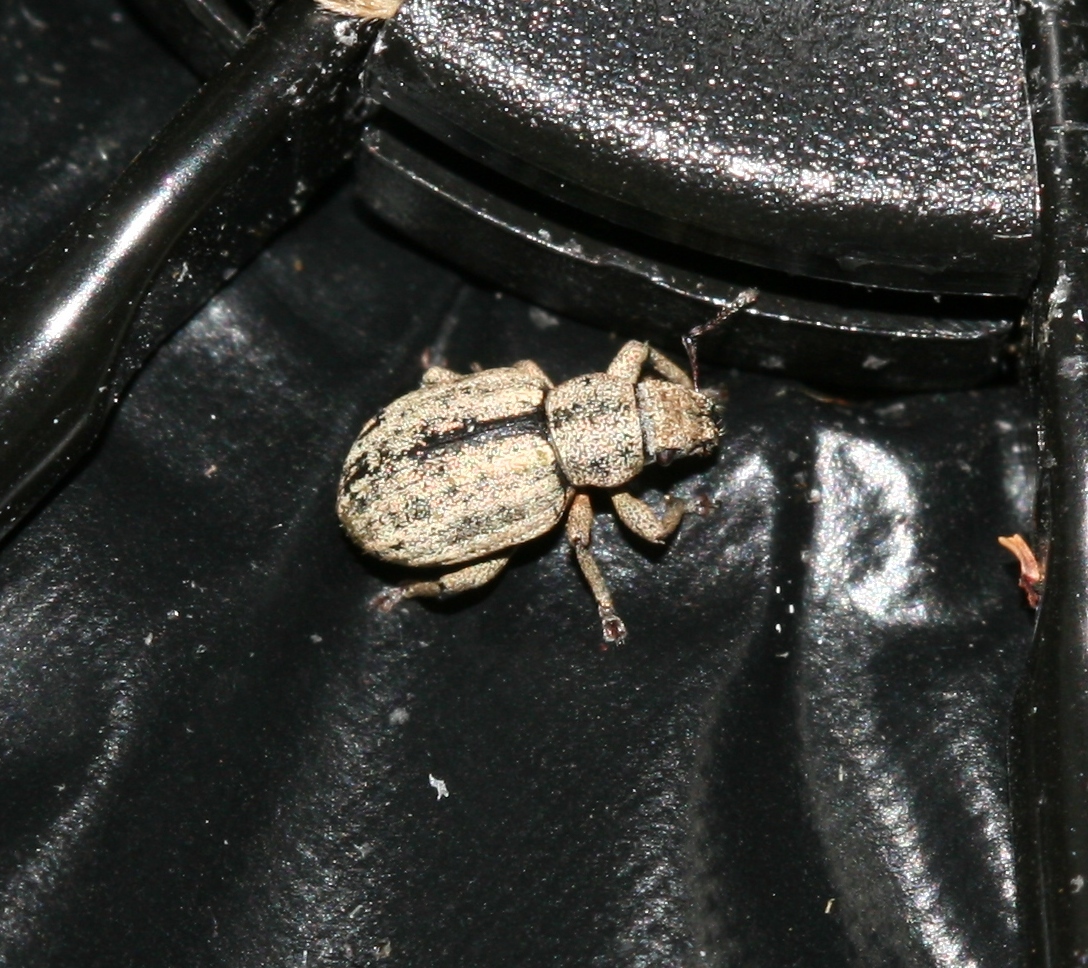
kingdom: Animalia
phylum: Arthropoda
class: Insecta
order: Coleoptera
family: Curculionidae
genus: Strophosoma
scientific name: Strophosoma melanogrammum
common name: Weevil
